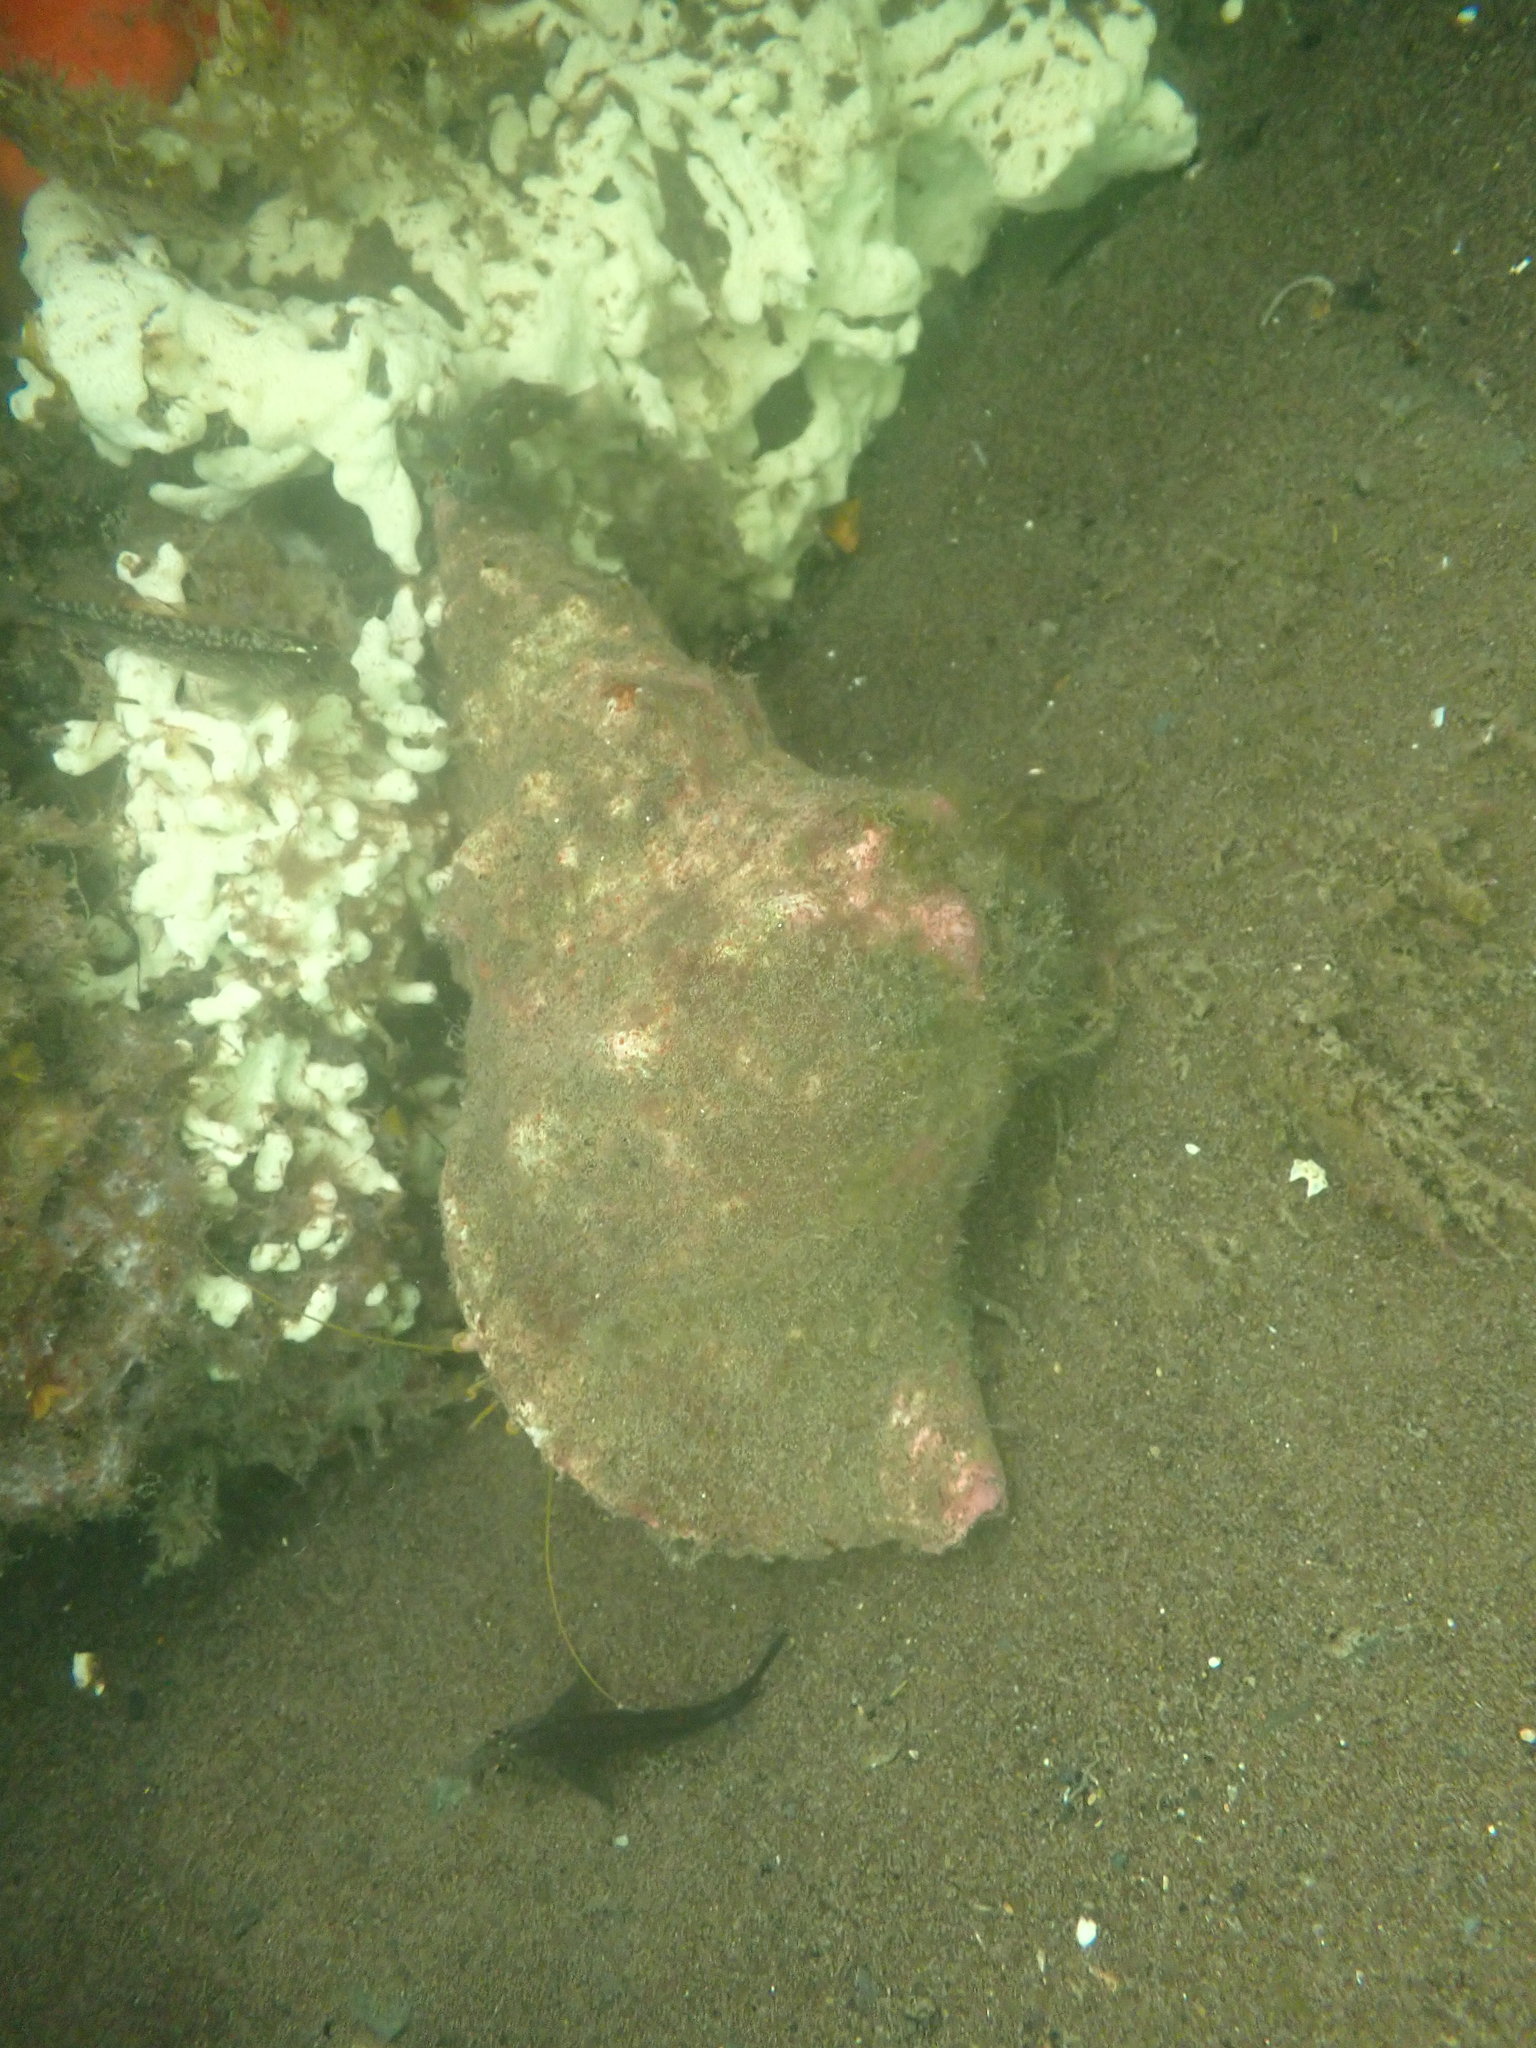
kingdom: Animalia
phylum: Mollusca
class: Gastropoda
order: Littorinimorpha
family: Charoniidae
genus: Charonia
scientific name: Charonia lampas
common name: Knobbed triton
